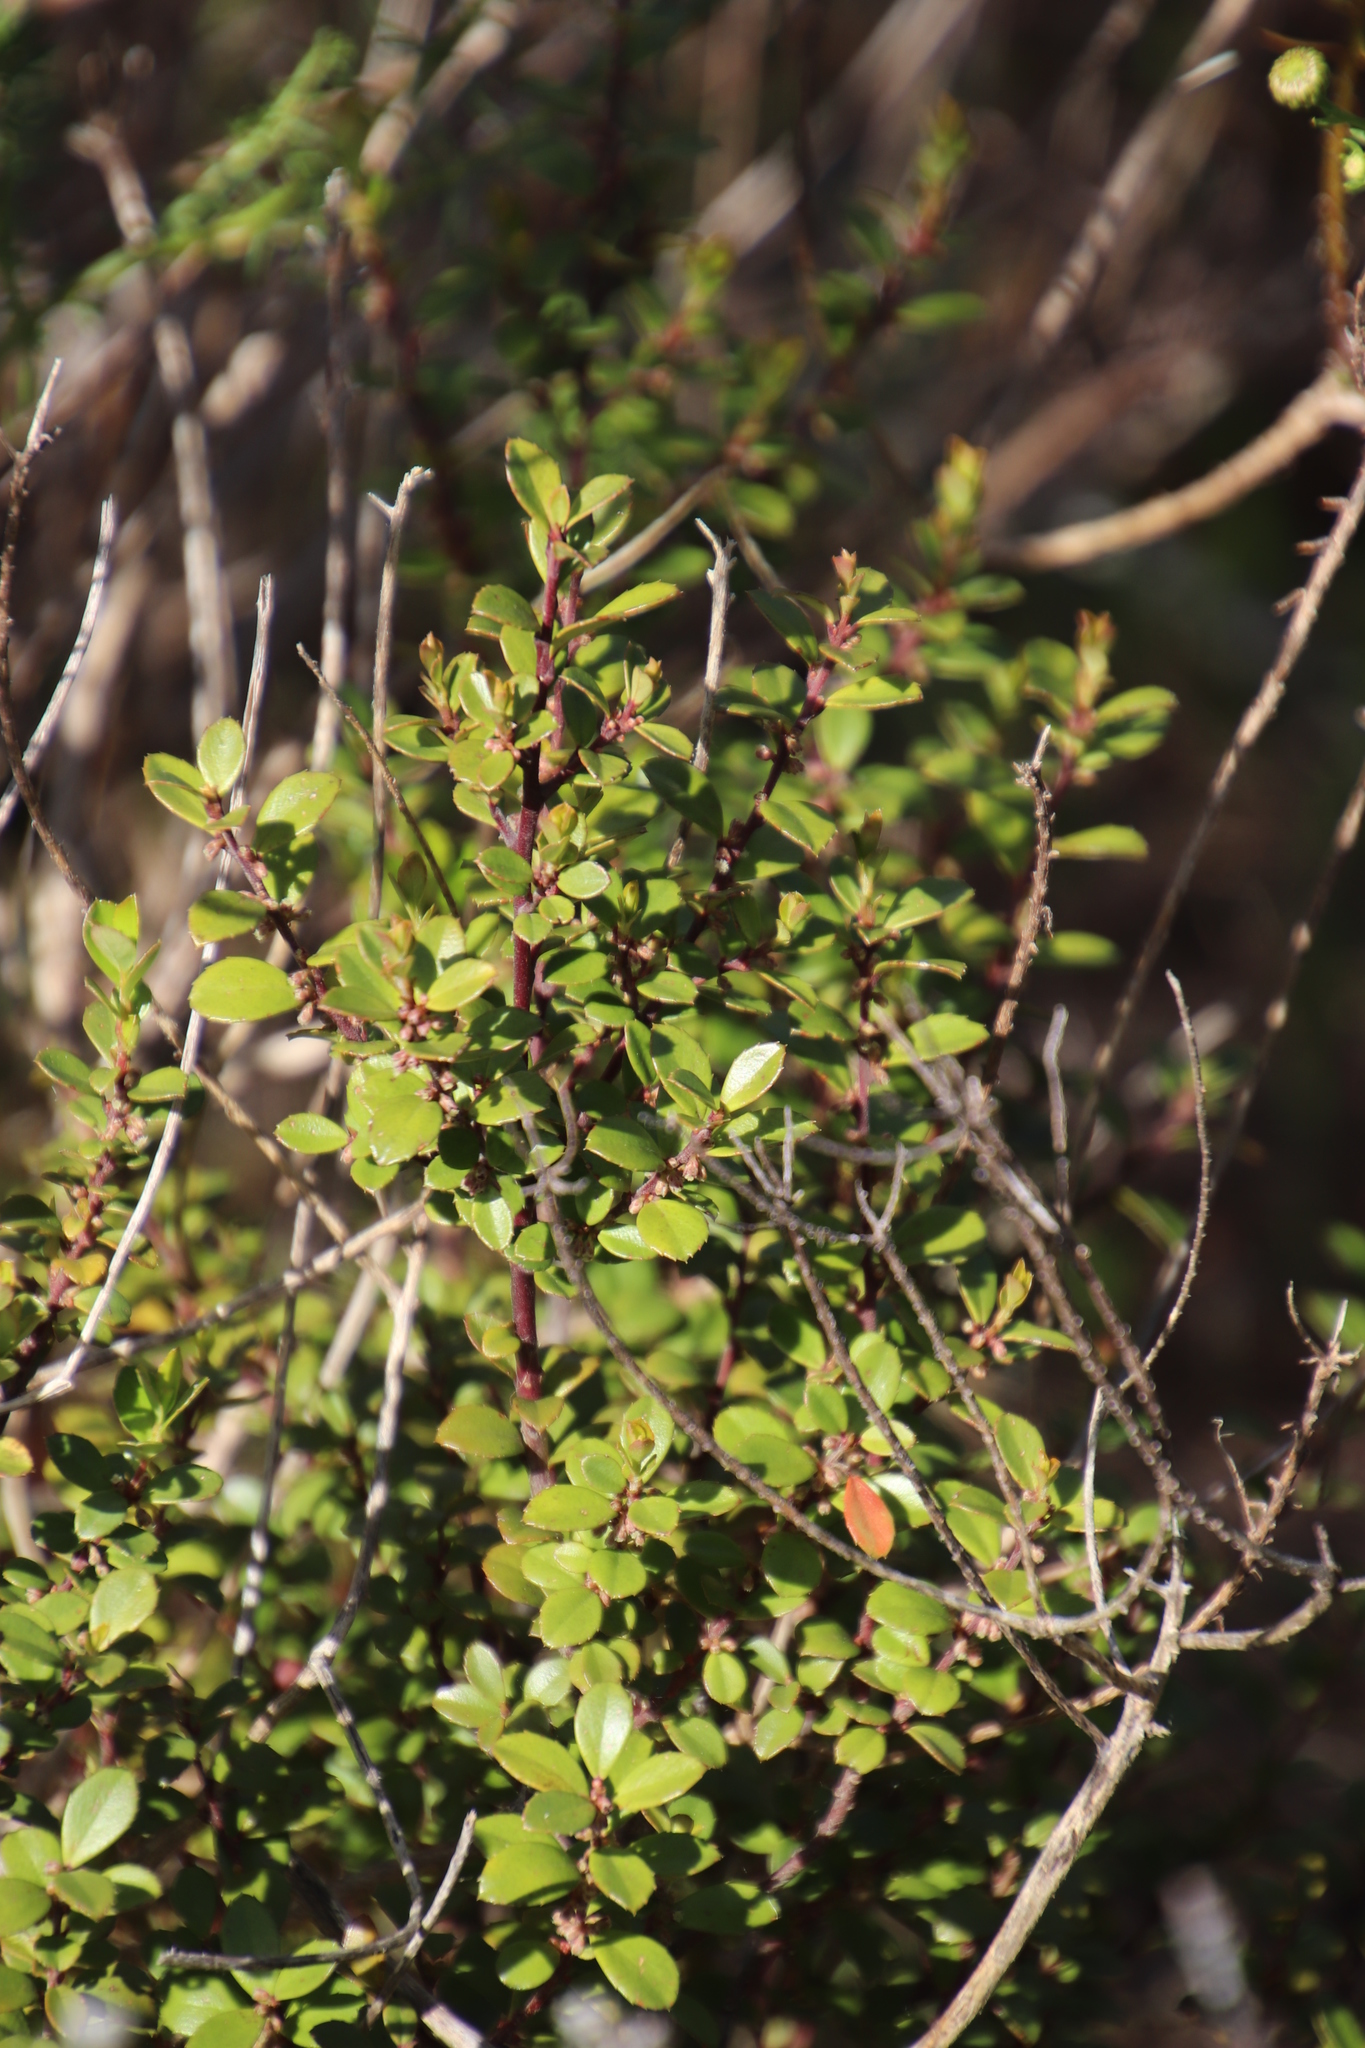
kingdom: Plantae
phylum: Tracheophyta
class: Magnoliopsida
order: Ericales
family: Primulaceae
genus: Myrsine
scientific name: Myrsine africana
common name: African-boxwood
